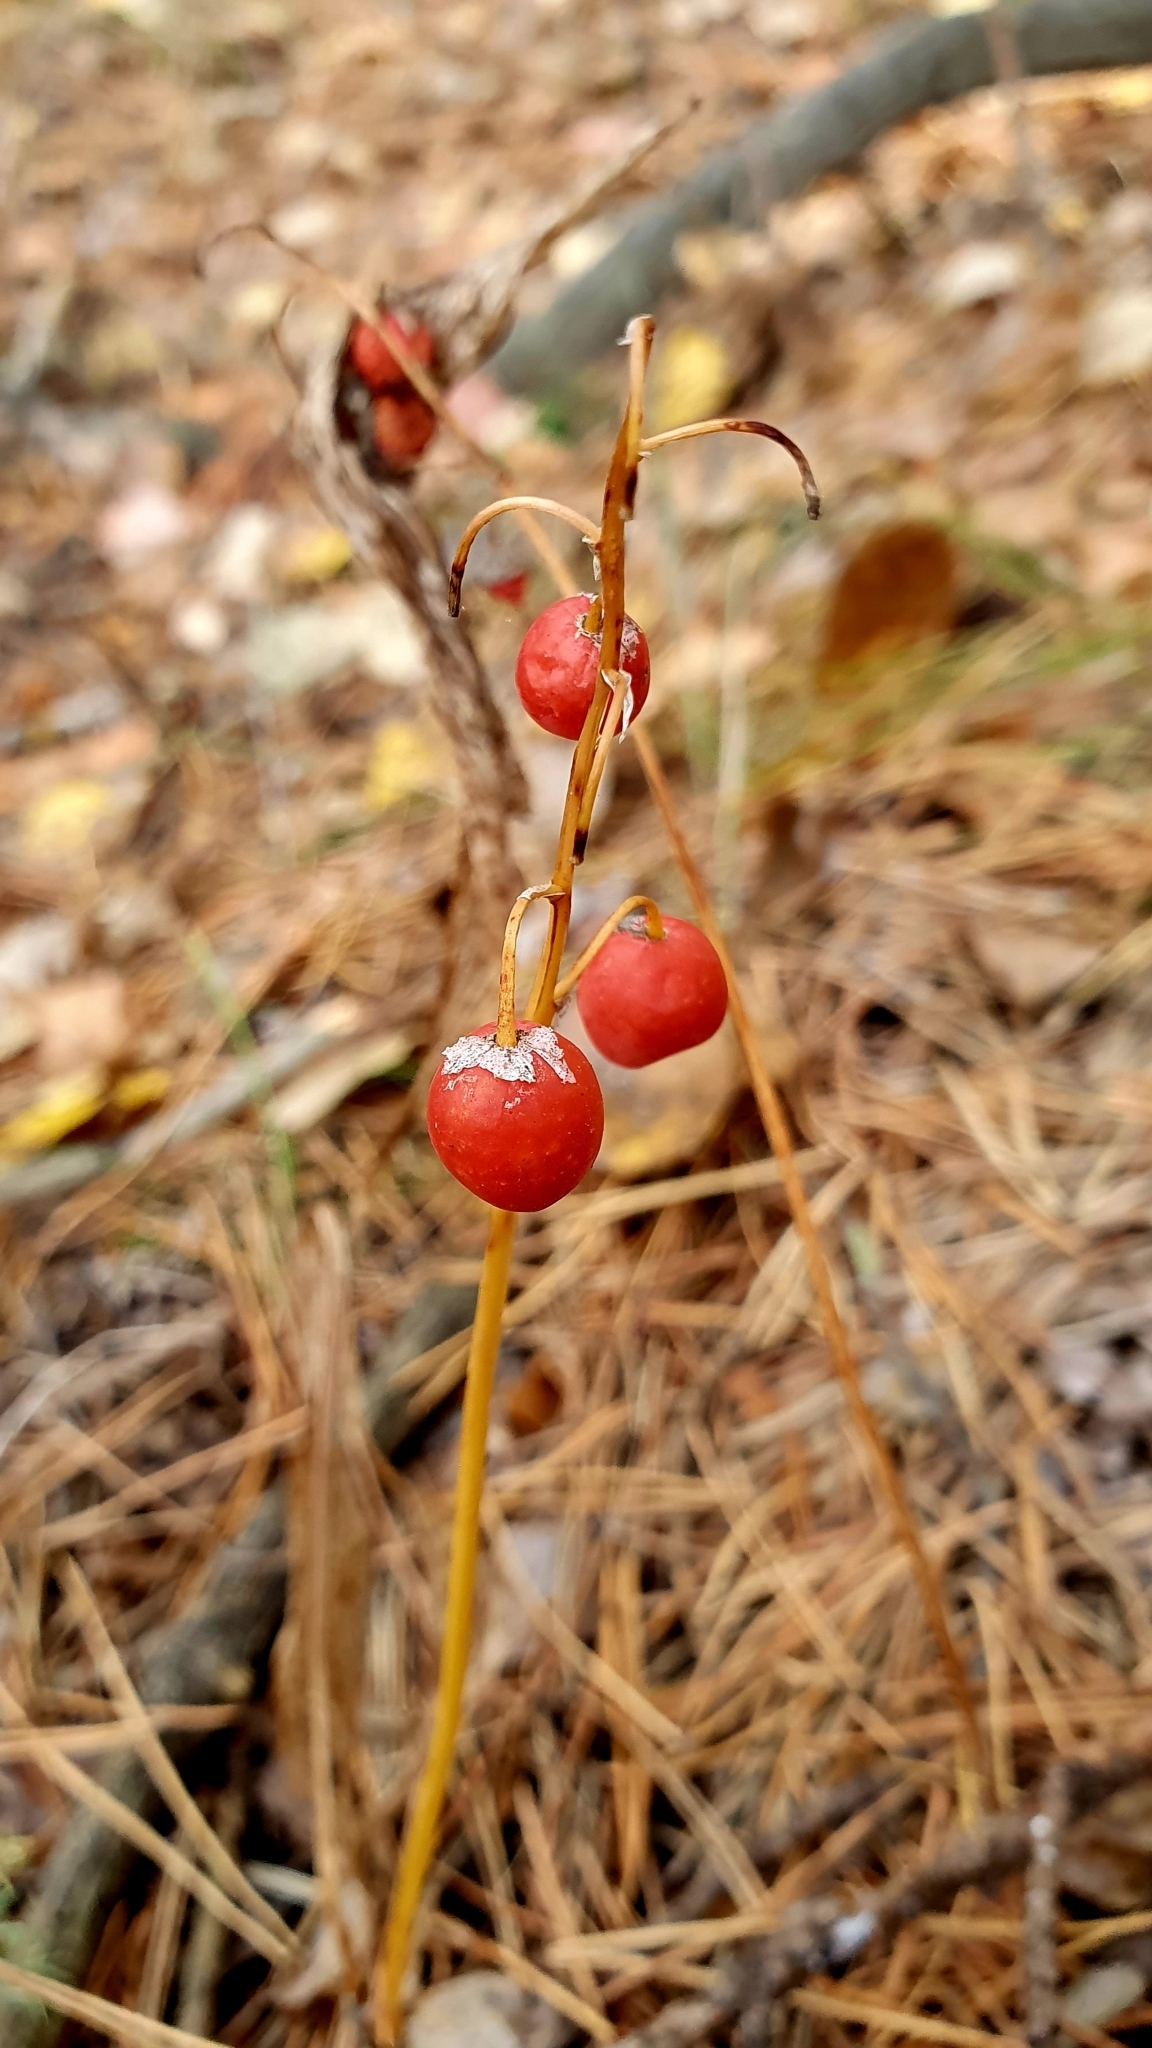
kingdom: Plantae
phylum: Tracheophyta
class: Liliopsida
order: Asparagales
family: Asparagaceae
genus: Convallaria
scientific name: Convallaria majalis
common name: Lily-of-the-valley
